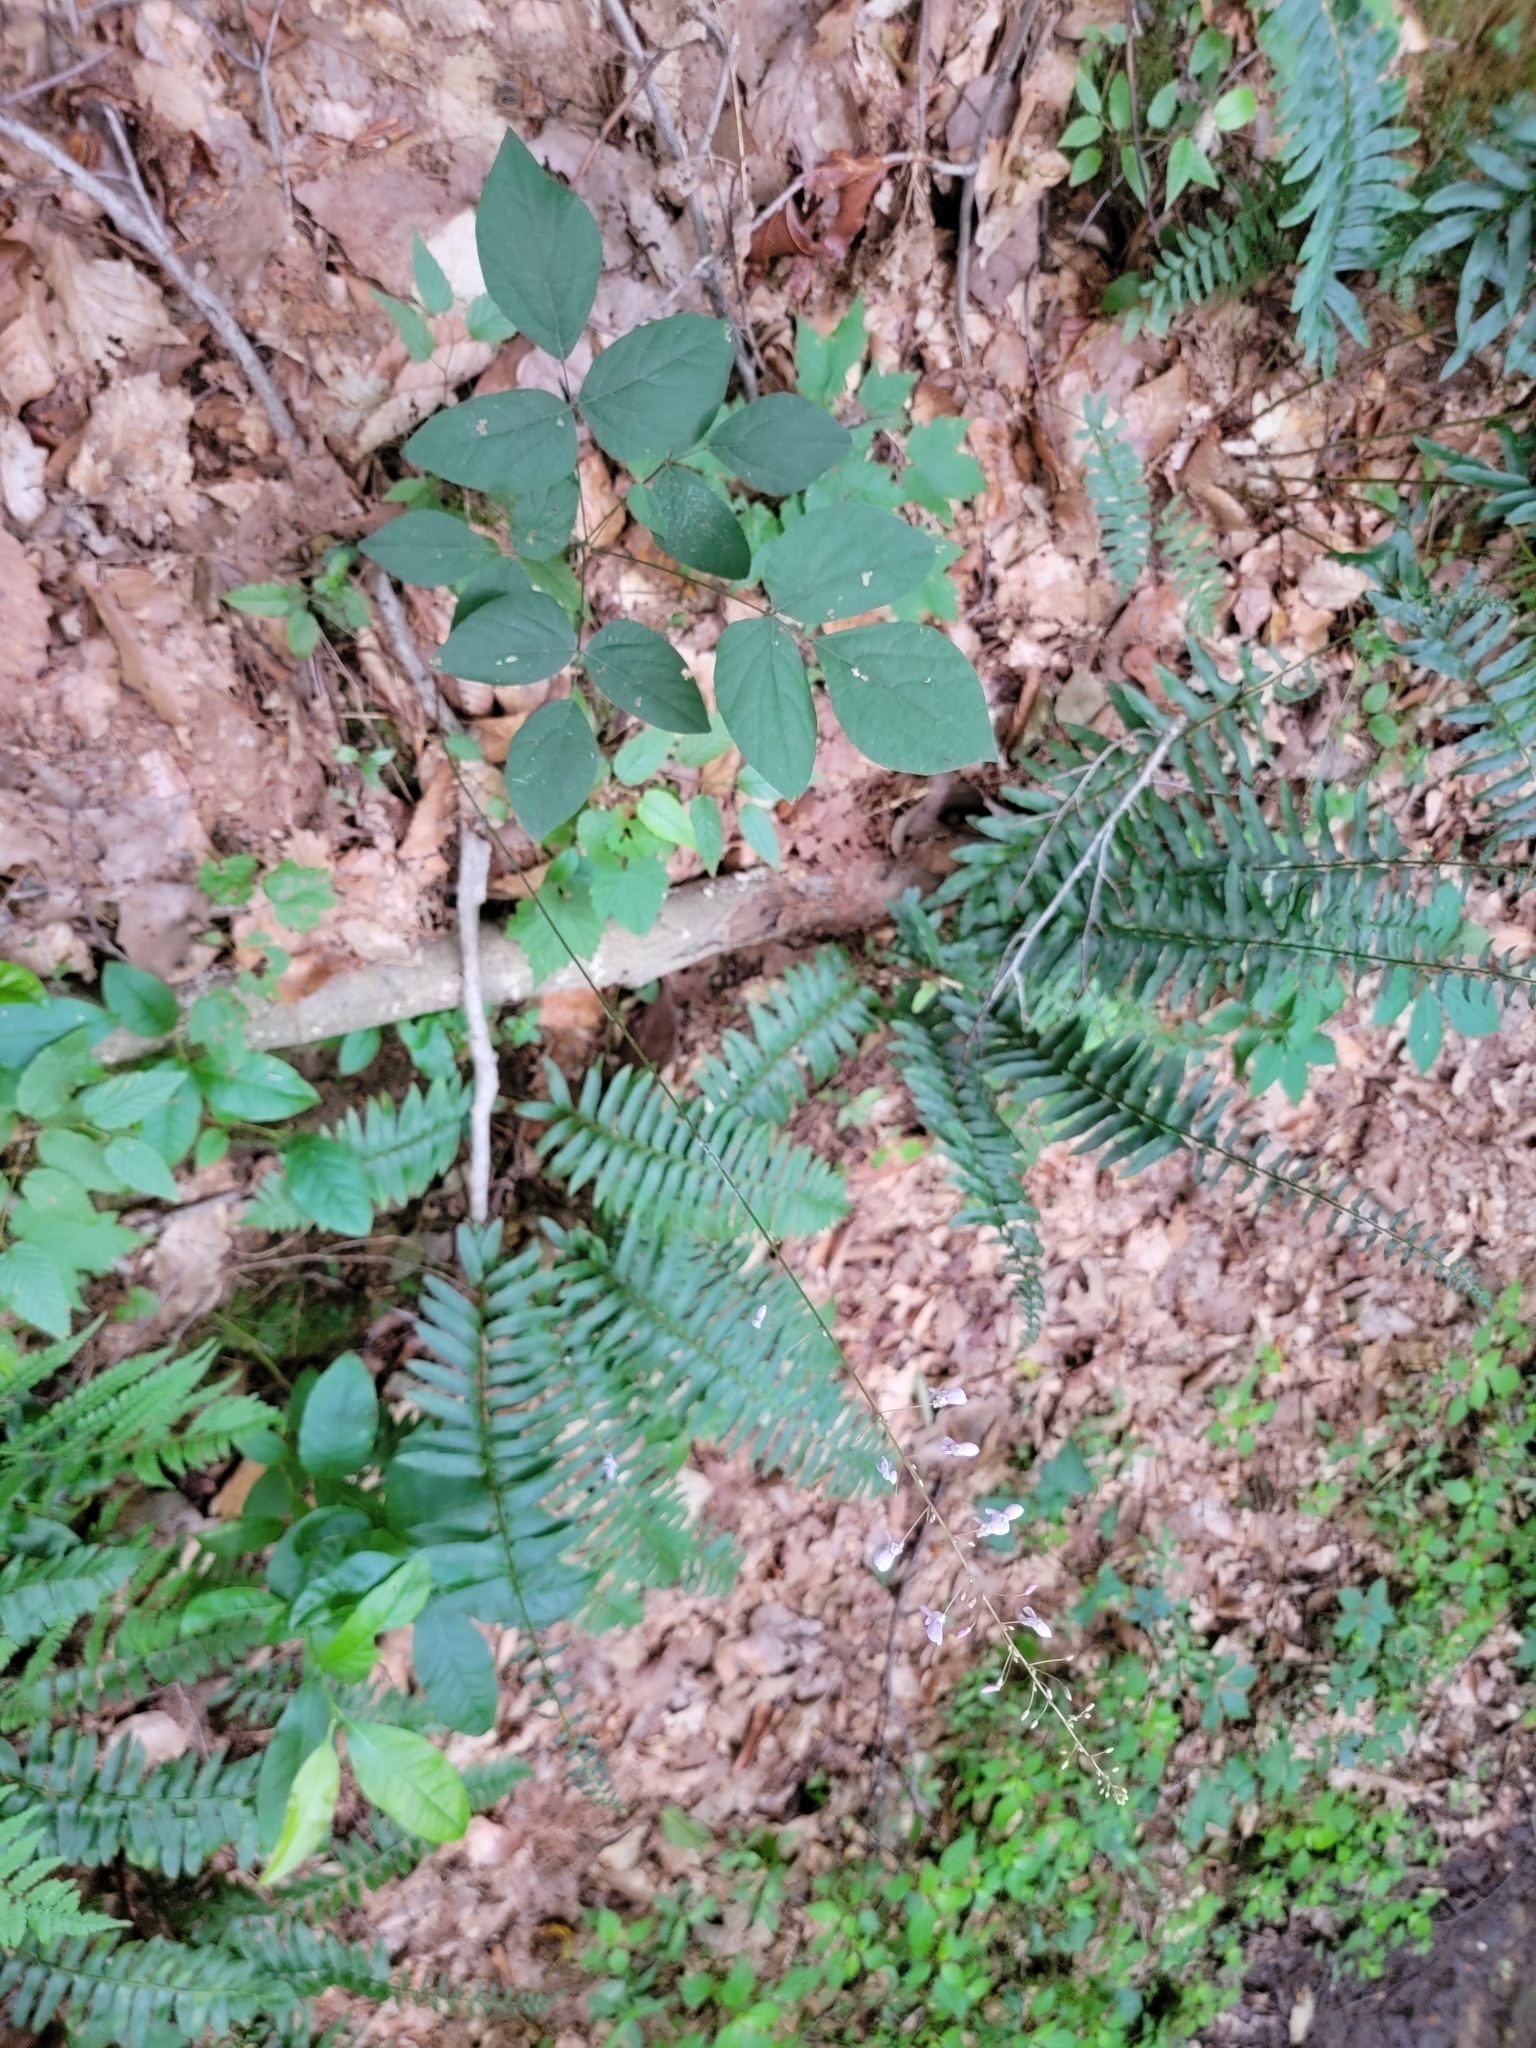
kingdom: Plantae
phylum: Tracheophyta
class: Magnoliopsida
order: Fabales
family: Fabaceae
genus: Hylodesmum
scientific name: Hylodesmum nudiflorum
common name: Bare-stemmed tick-trefoil
